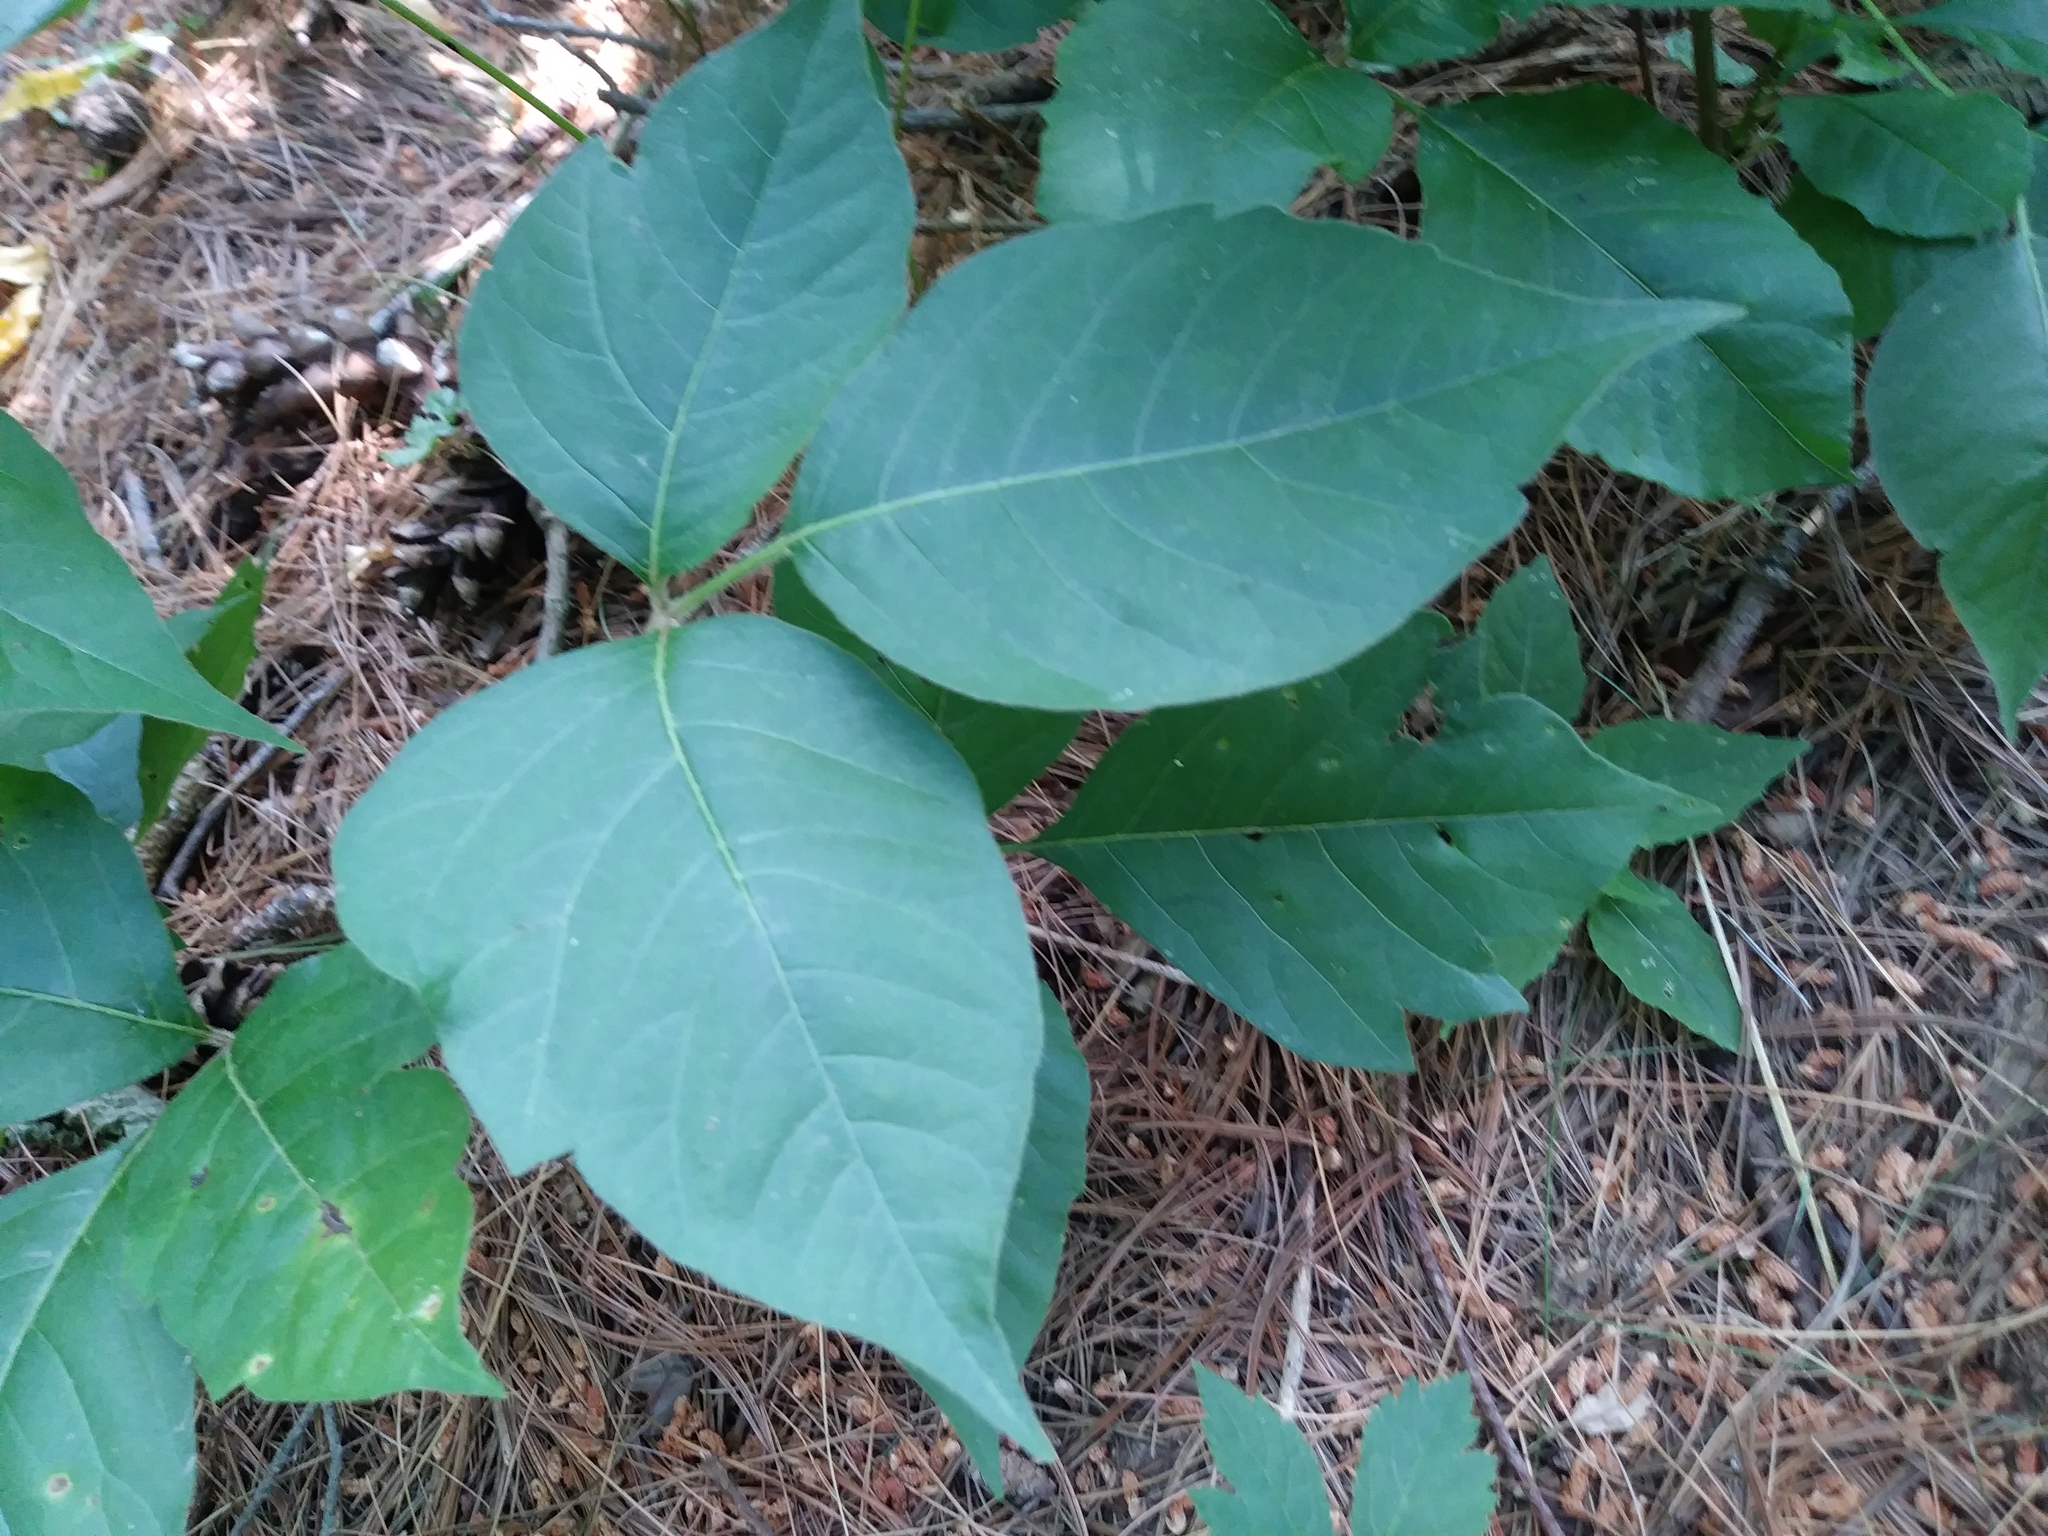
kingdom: Plantae
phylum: Tracheophyta
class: Magnoliopsida
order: Sapindales
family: Anacardiaceae
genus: Toxicodendron
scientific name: Toxicodendron radicans
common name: Poison ivy
